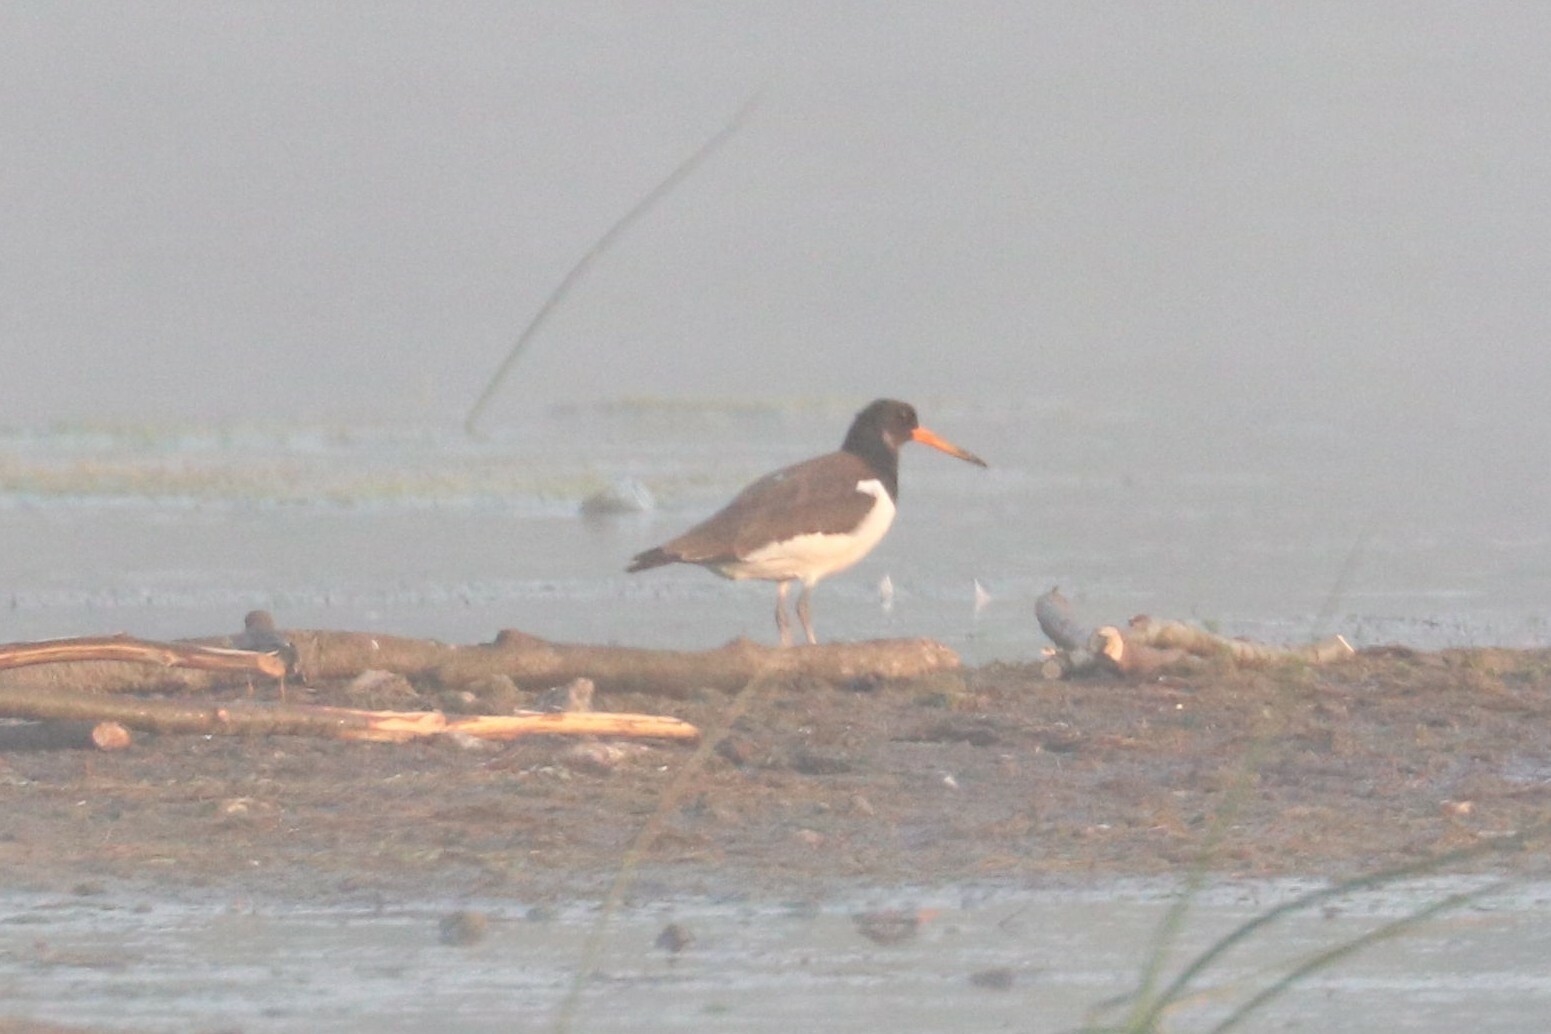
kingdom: Animalia
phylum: Chordata
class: Aves
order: Charadriiformes
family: Haematopodidae
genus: Haematopus
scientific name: Haematopus ostralegus
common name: Eurasian oystercatcher
